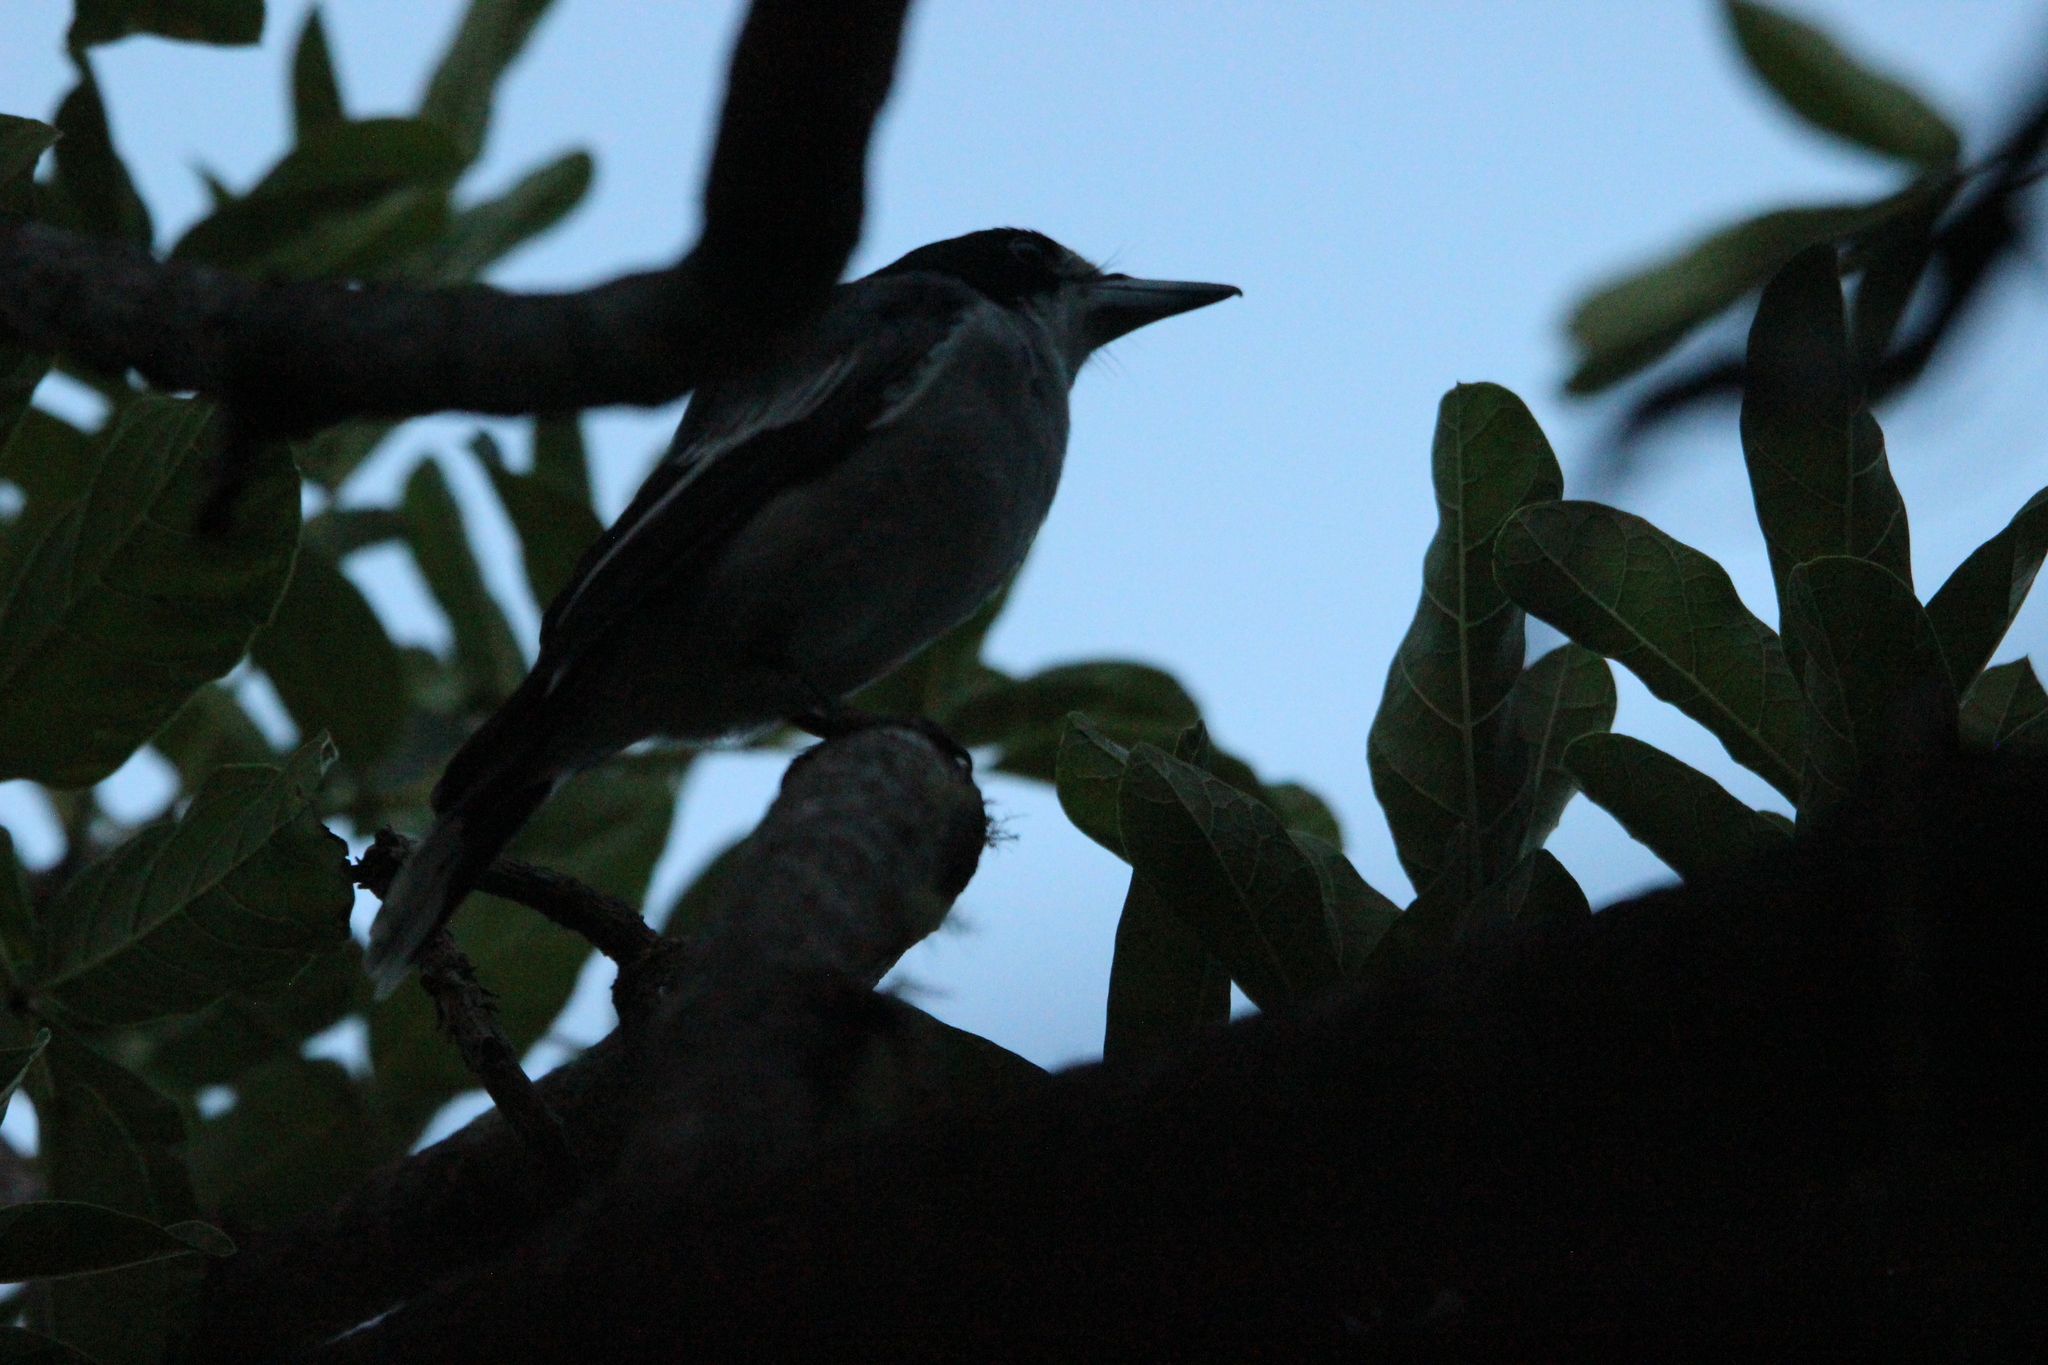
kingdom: Animalia
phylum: Chordata
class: Aves
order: Passeriformes
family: Cracticidae
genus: Cracticus
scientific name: Cracticus torquatus
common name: Grey butcherbird
